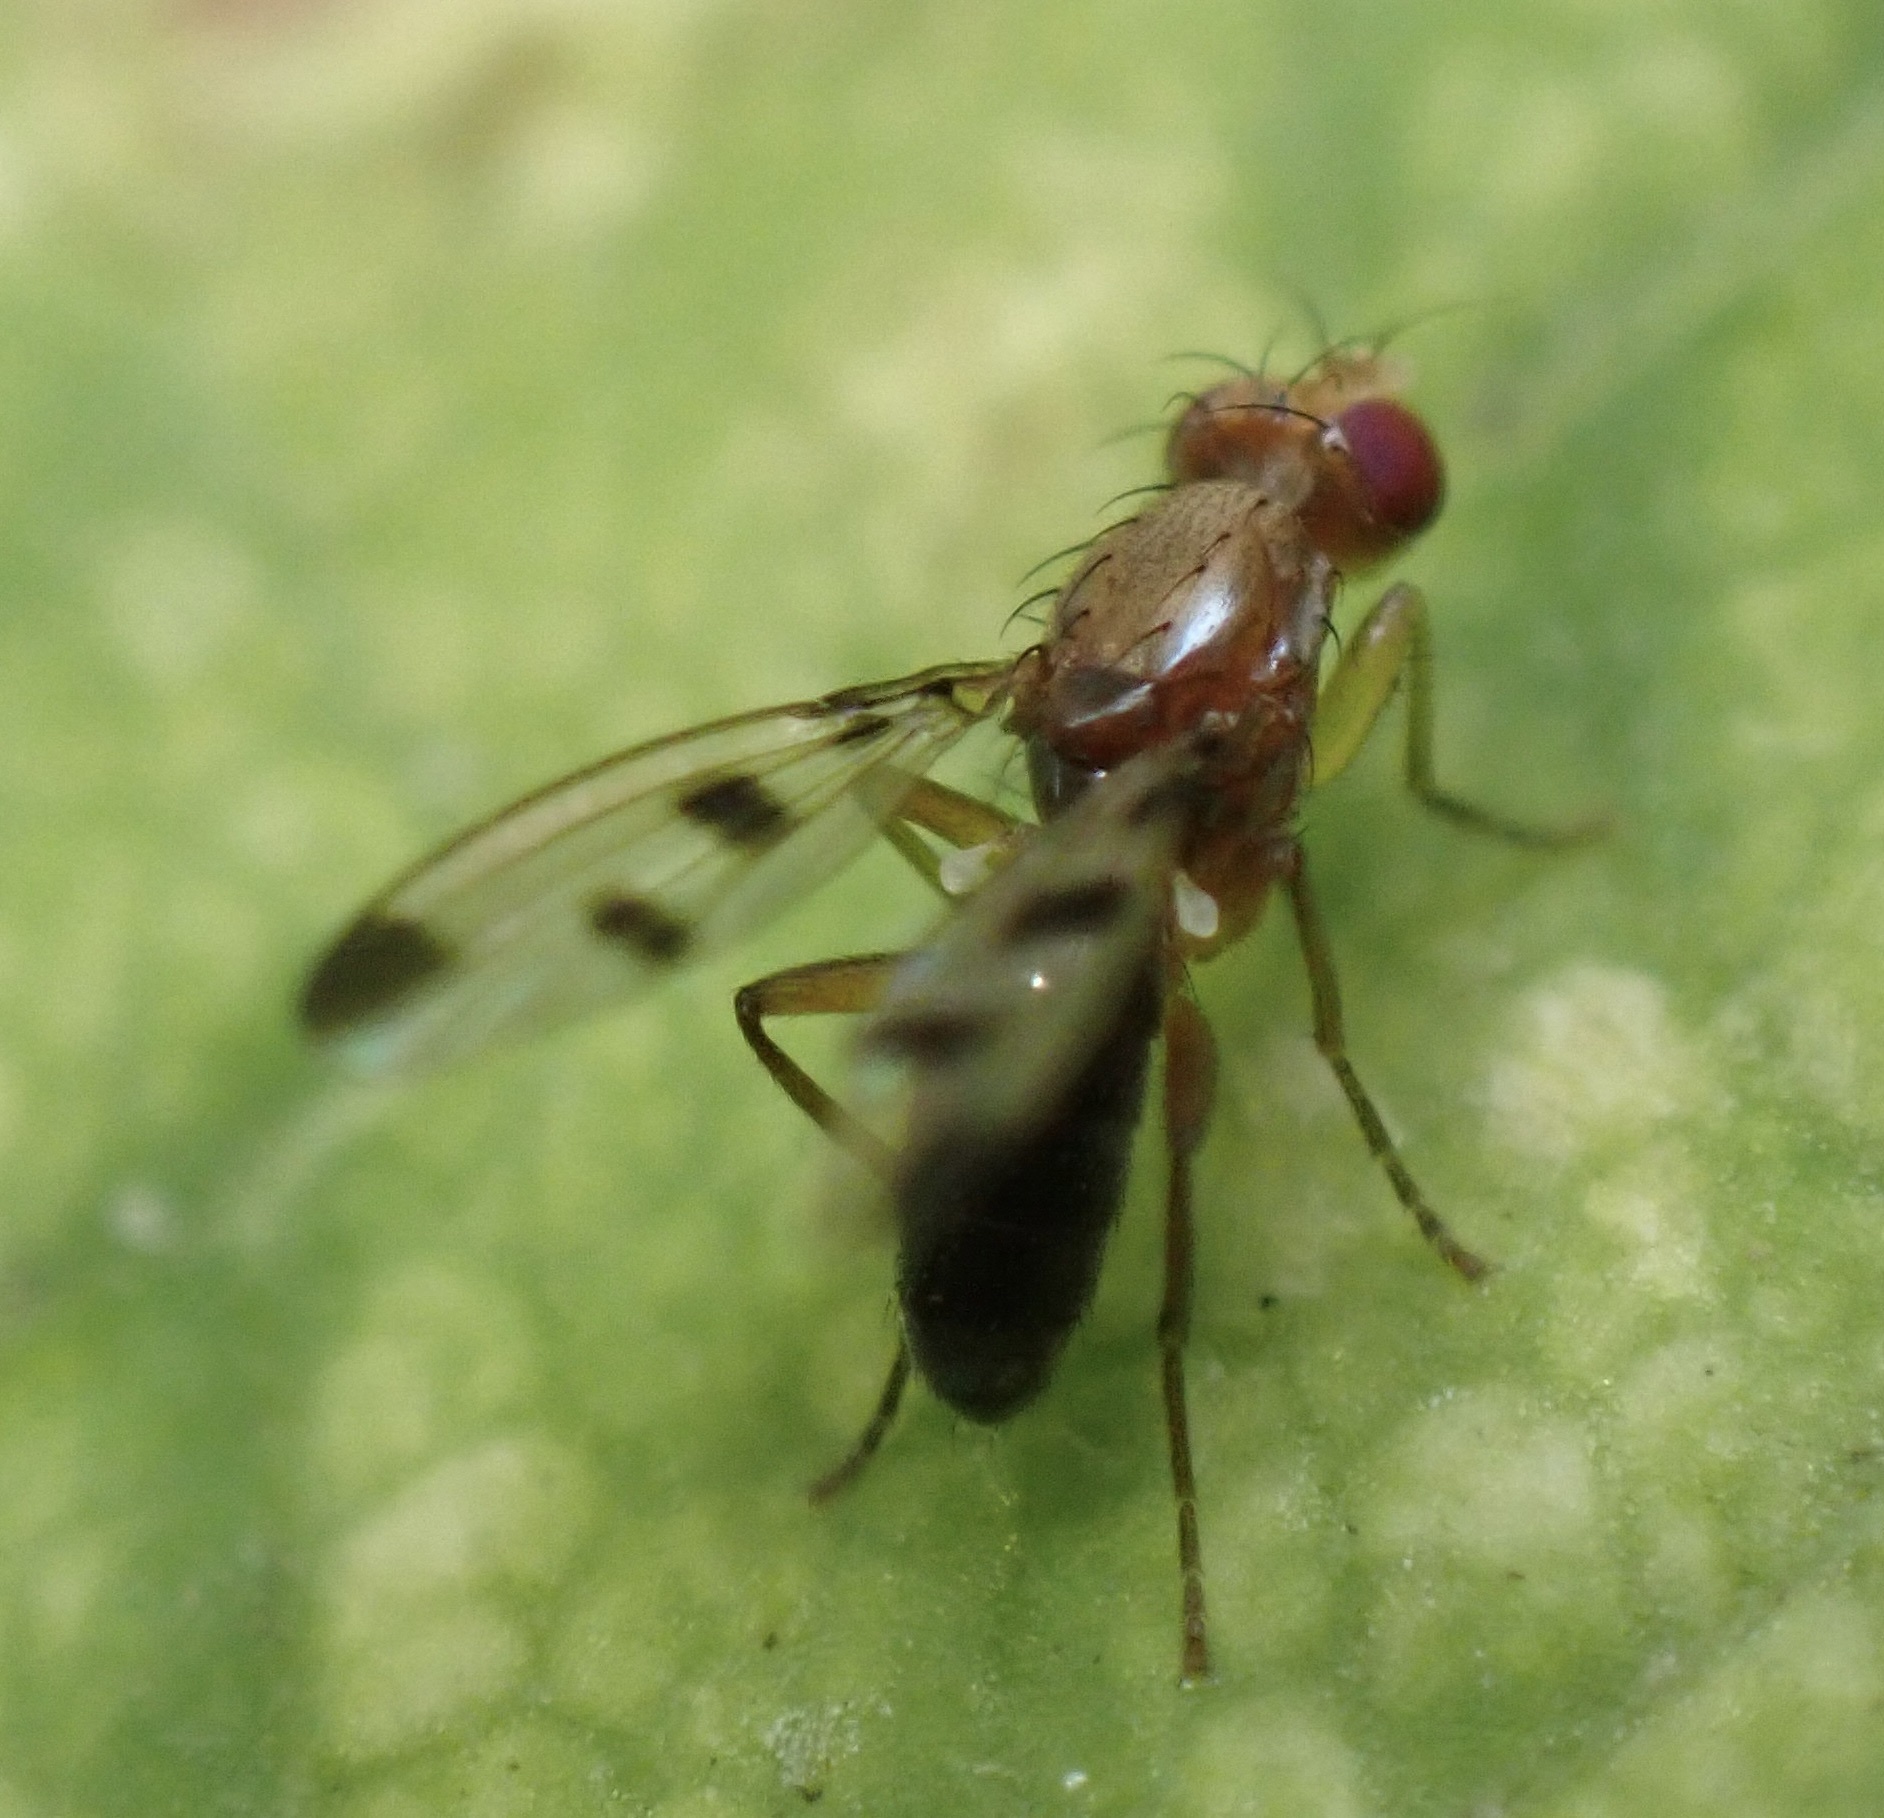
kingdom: Animalia
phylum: Arthropoda
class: Insecta
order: Diptera
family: Opomyzidae
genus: Geomyza
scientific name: Geomyza
